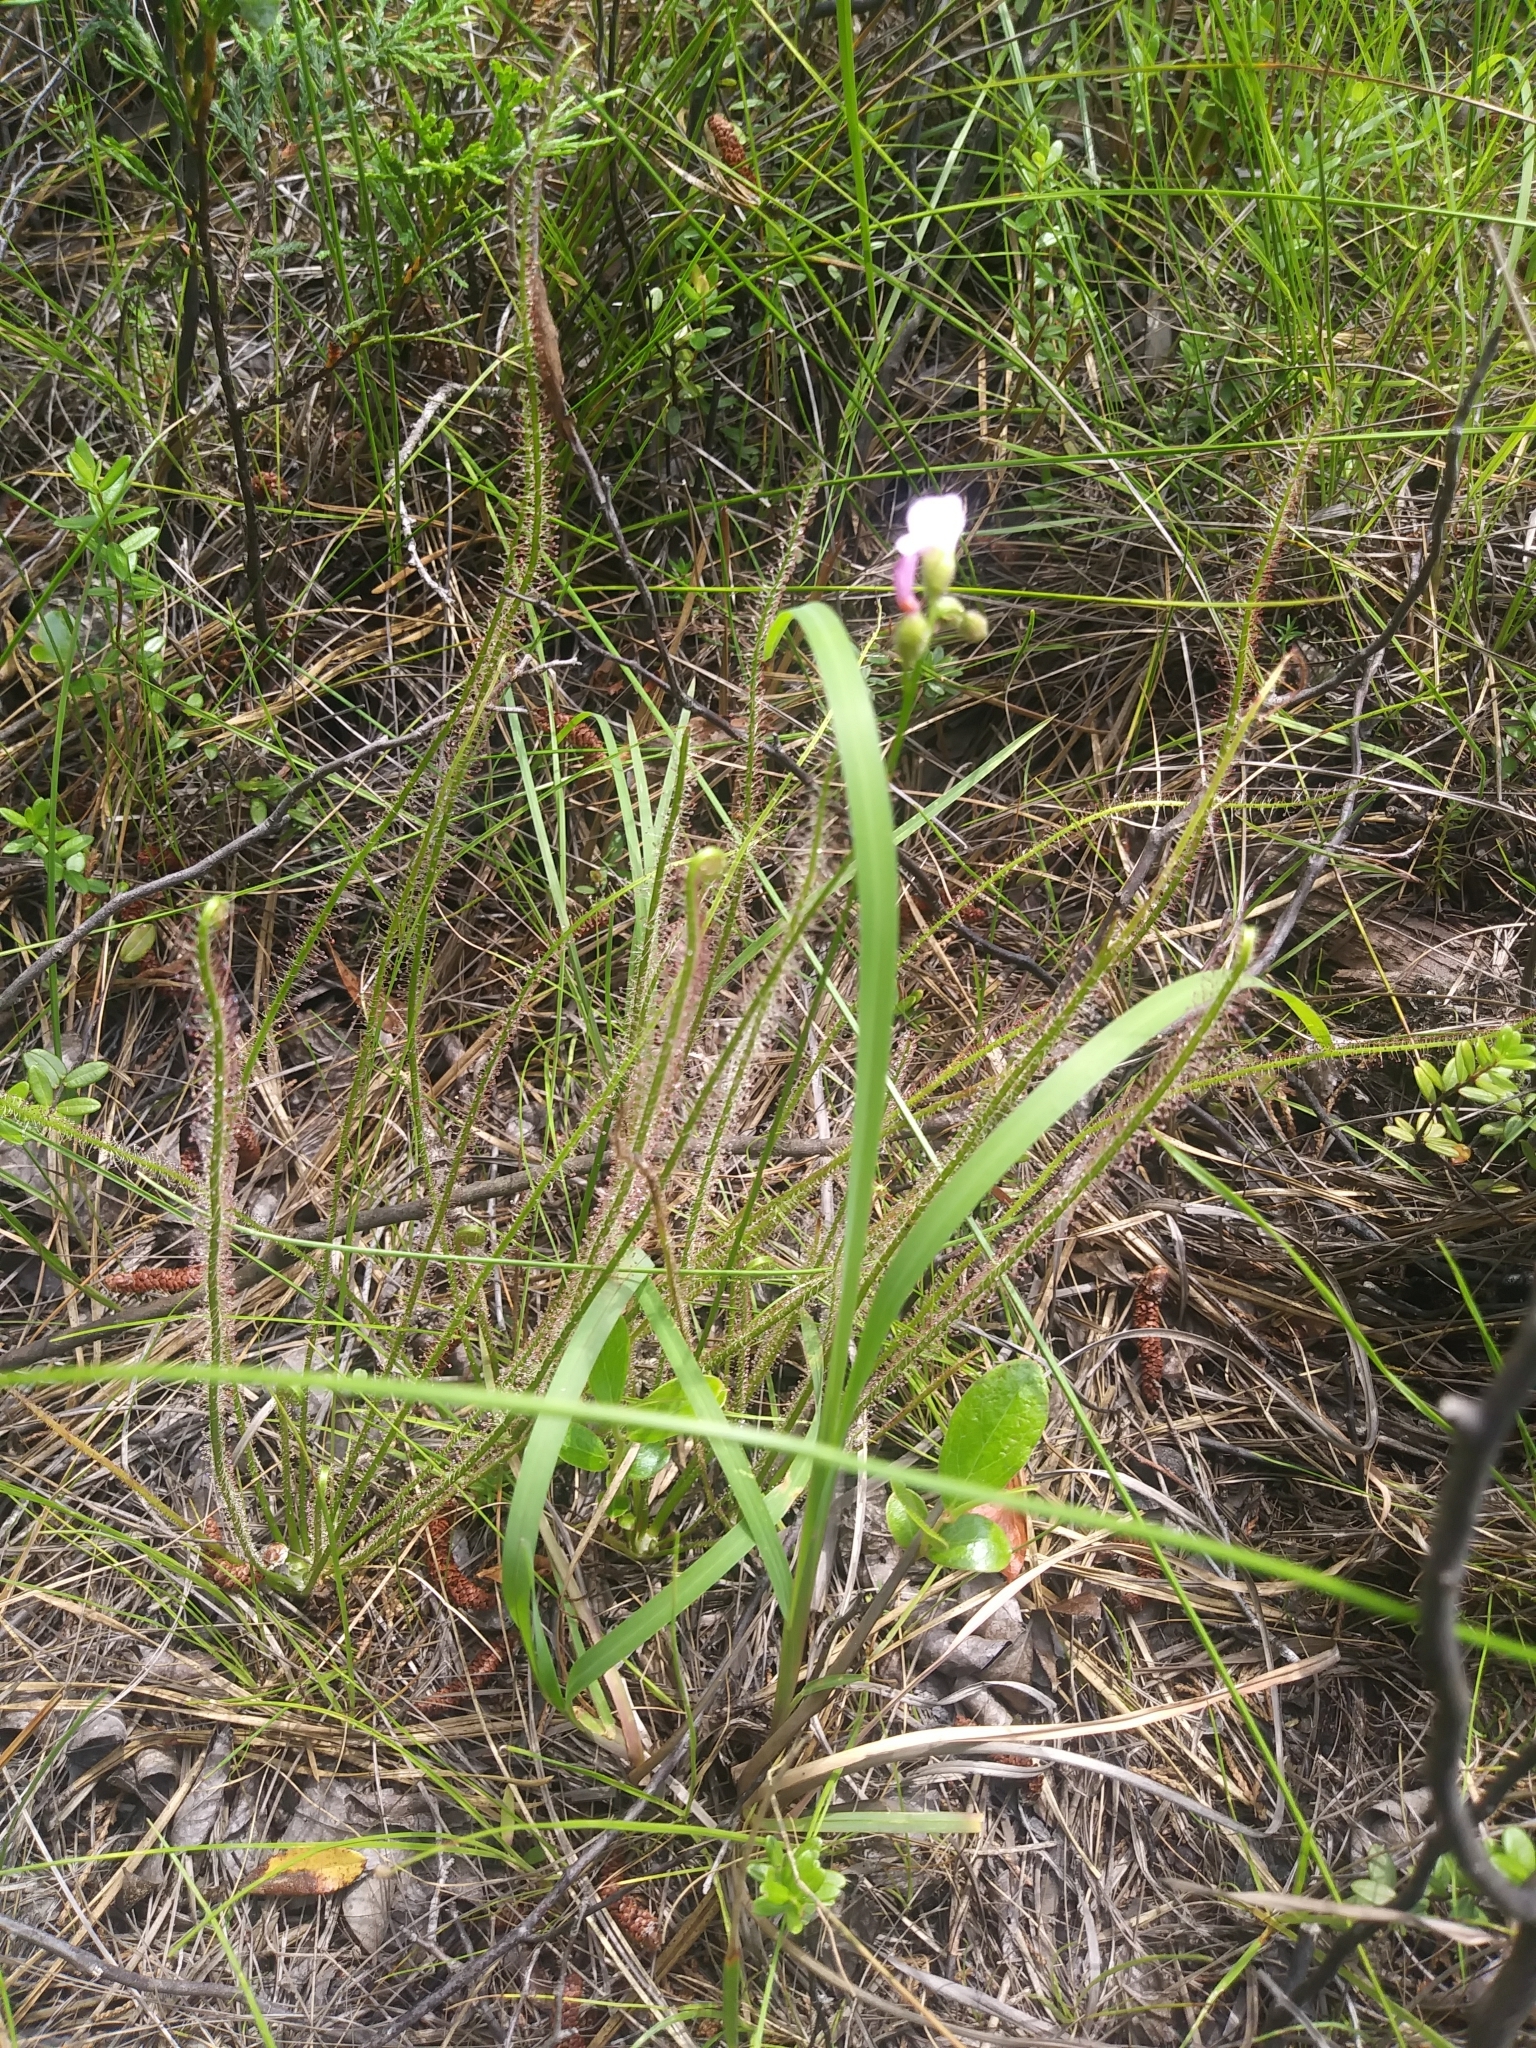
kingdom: Plantae
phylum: Tracheophyta
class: Magnoliopsida
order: Caryophyllales
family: Droseraceae
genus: Drosera
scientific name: Drosera filiformis
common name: Dew-thread
